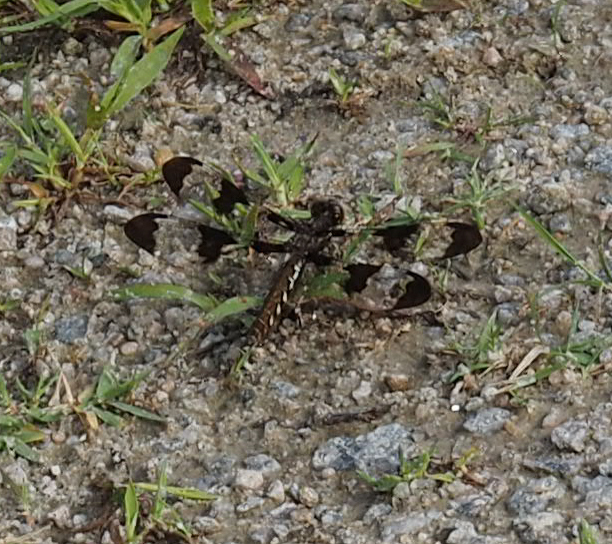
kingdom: Animalia
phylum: Arthropoda
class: Insecta
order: Odonata
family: Libellulidae
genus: Plathemis
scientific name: Plathemis lydia
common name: Common whitetail
